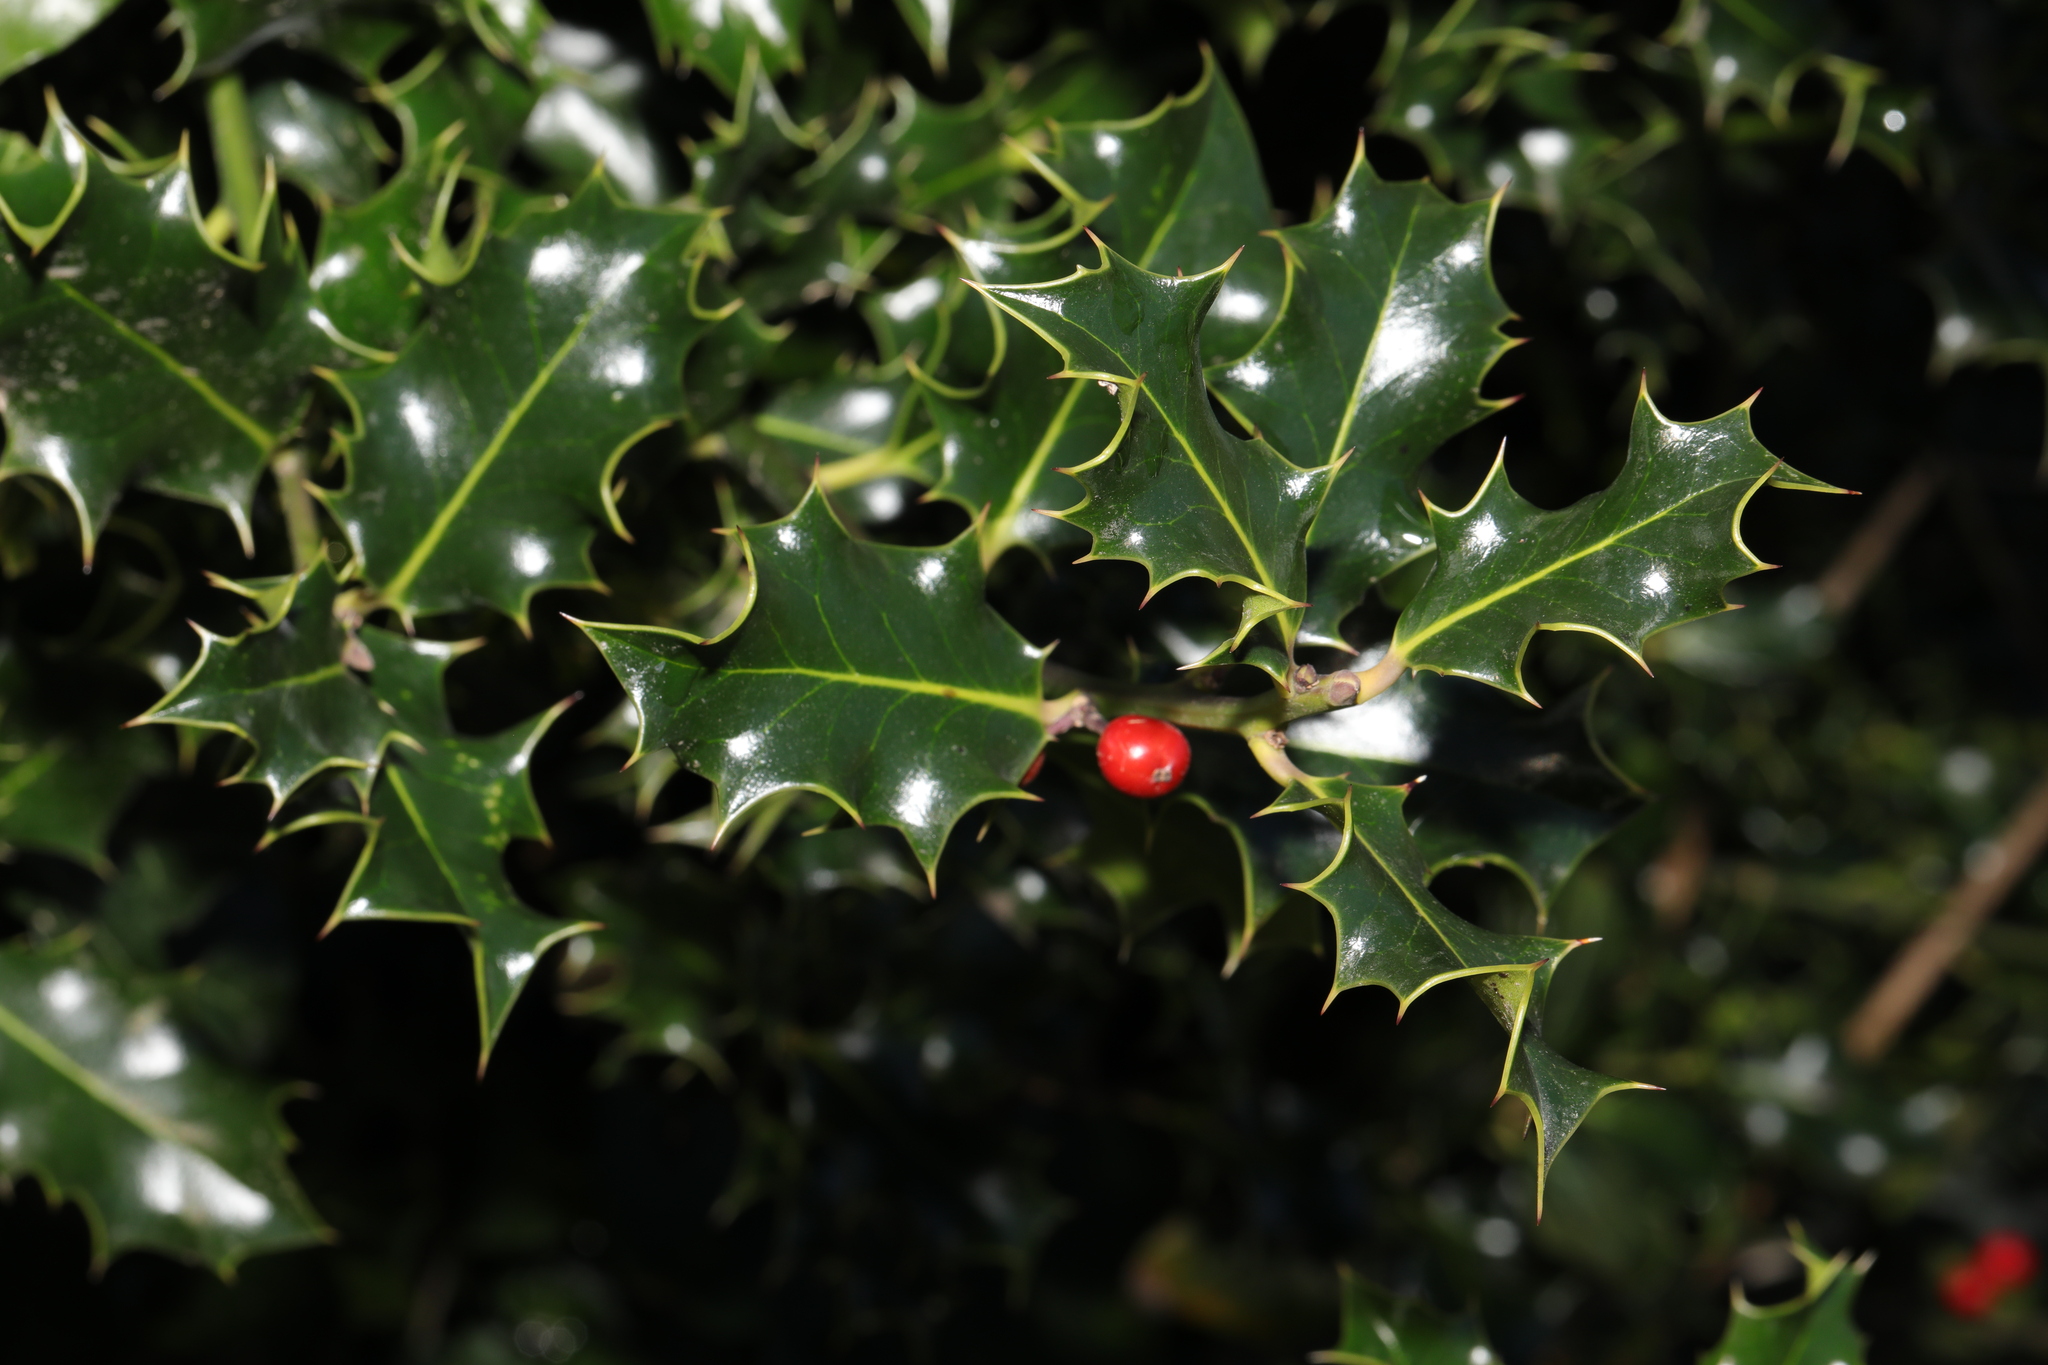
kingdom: Plantae
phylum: Tracheophyta
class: Magnoliopsida
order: Aquifoliales
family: Aquifoliaceae
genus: Ilex
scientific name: Ilex aquifolium
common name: English holly
